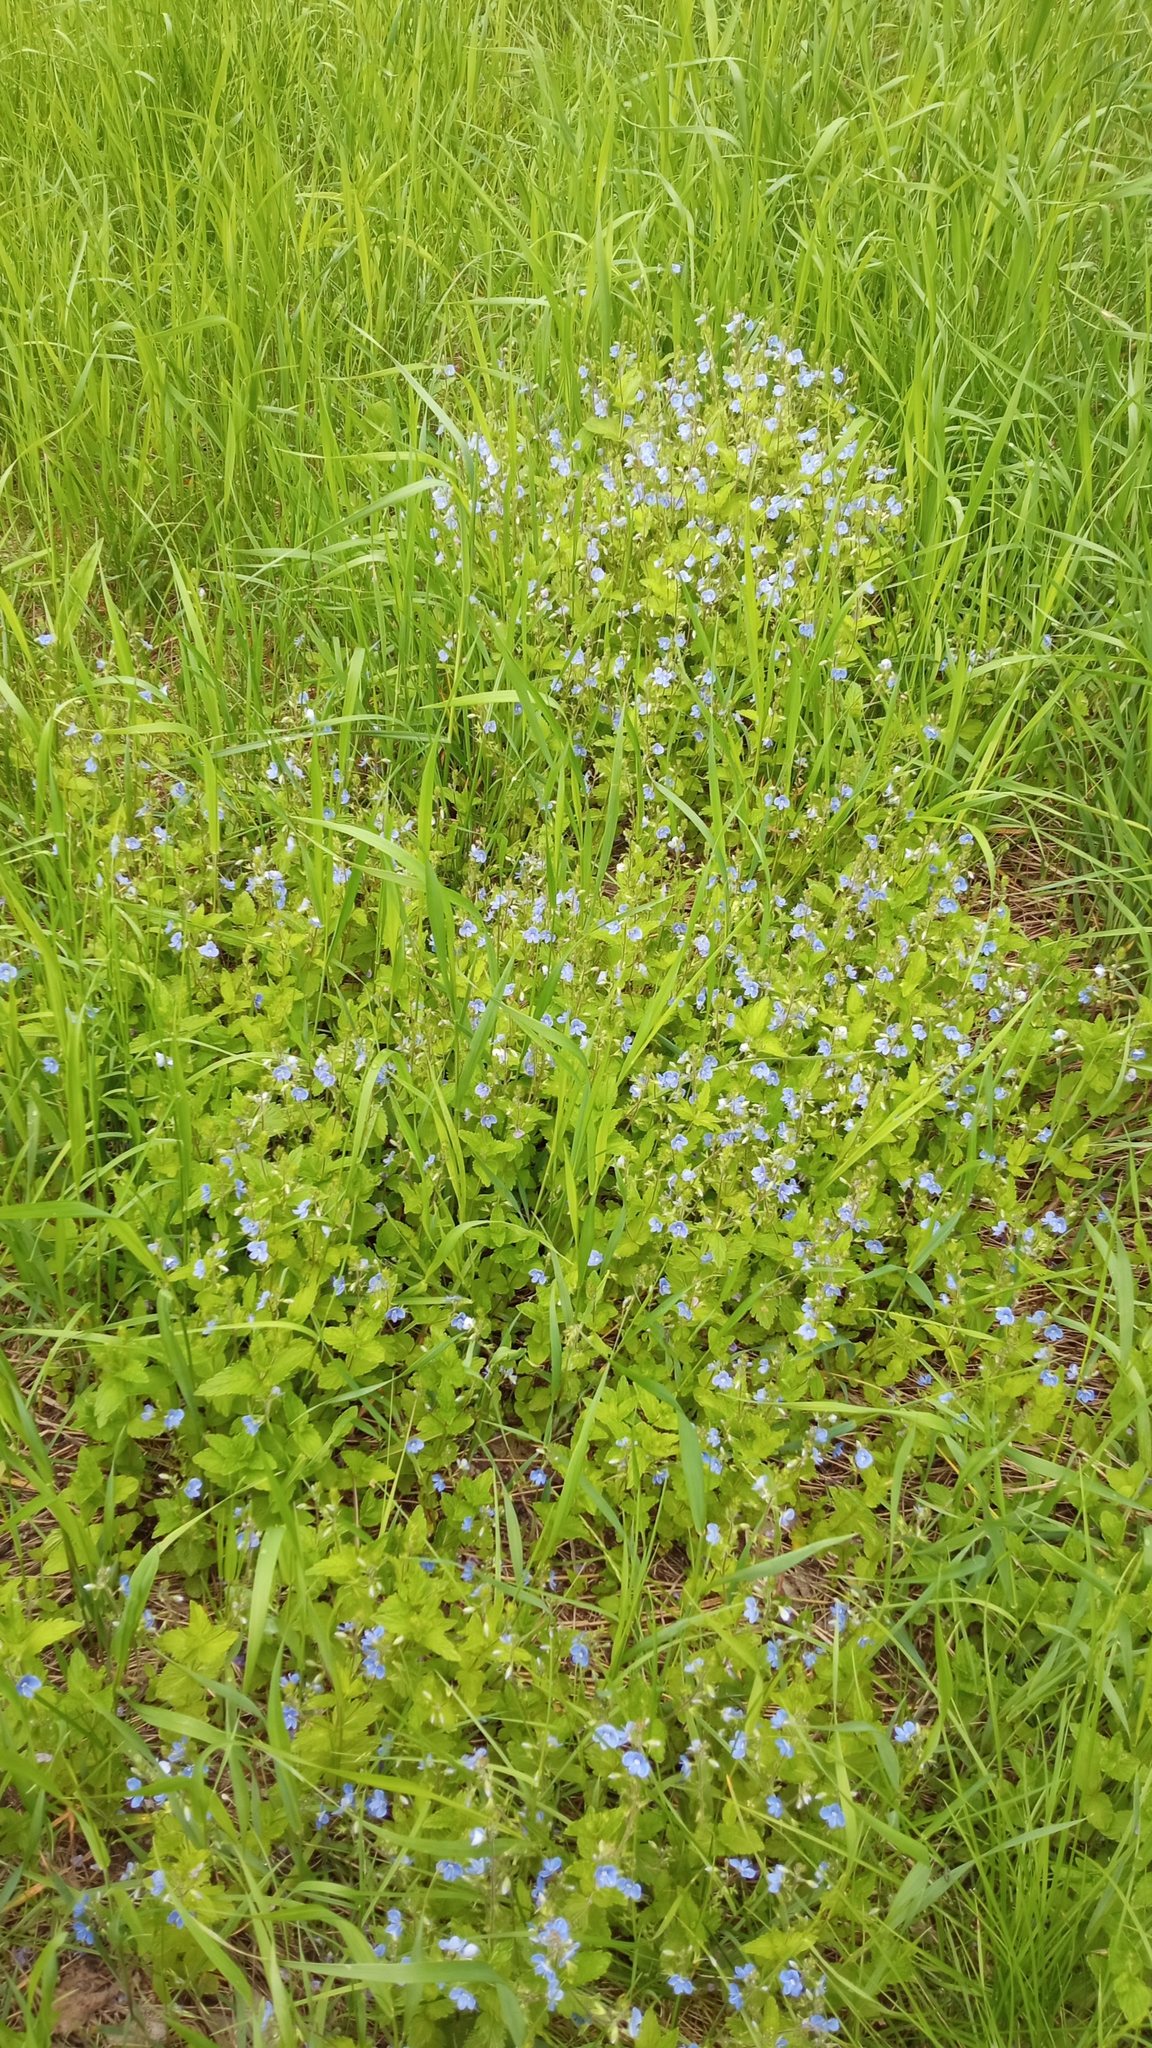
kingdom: Plantae
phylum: Tracheophyta
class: Magnoliopsida
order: Lamiales
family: Plantaginaceae
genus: Veronica
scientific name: Veronica chamaedrys
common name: Germander speedwell
